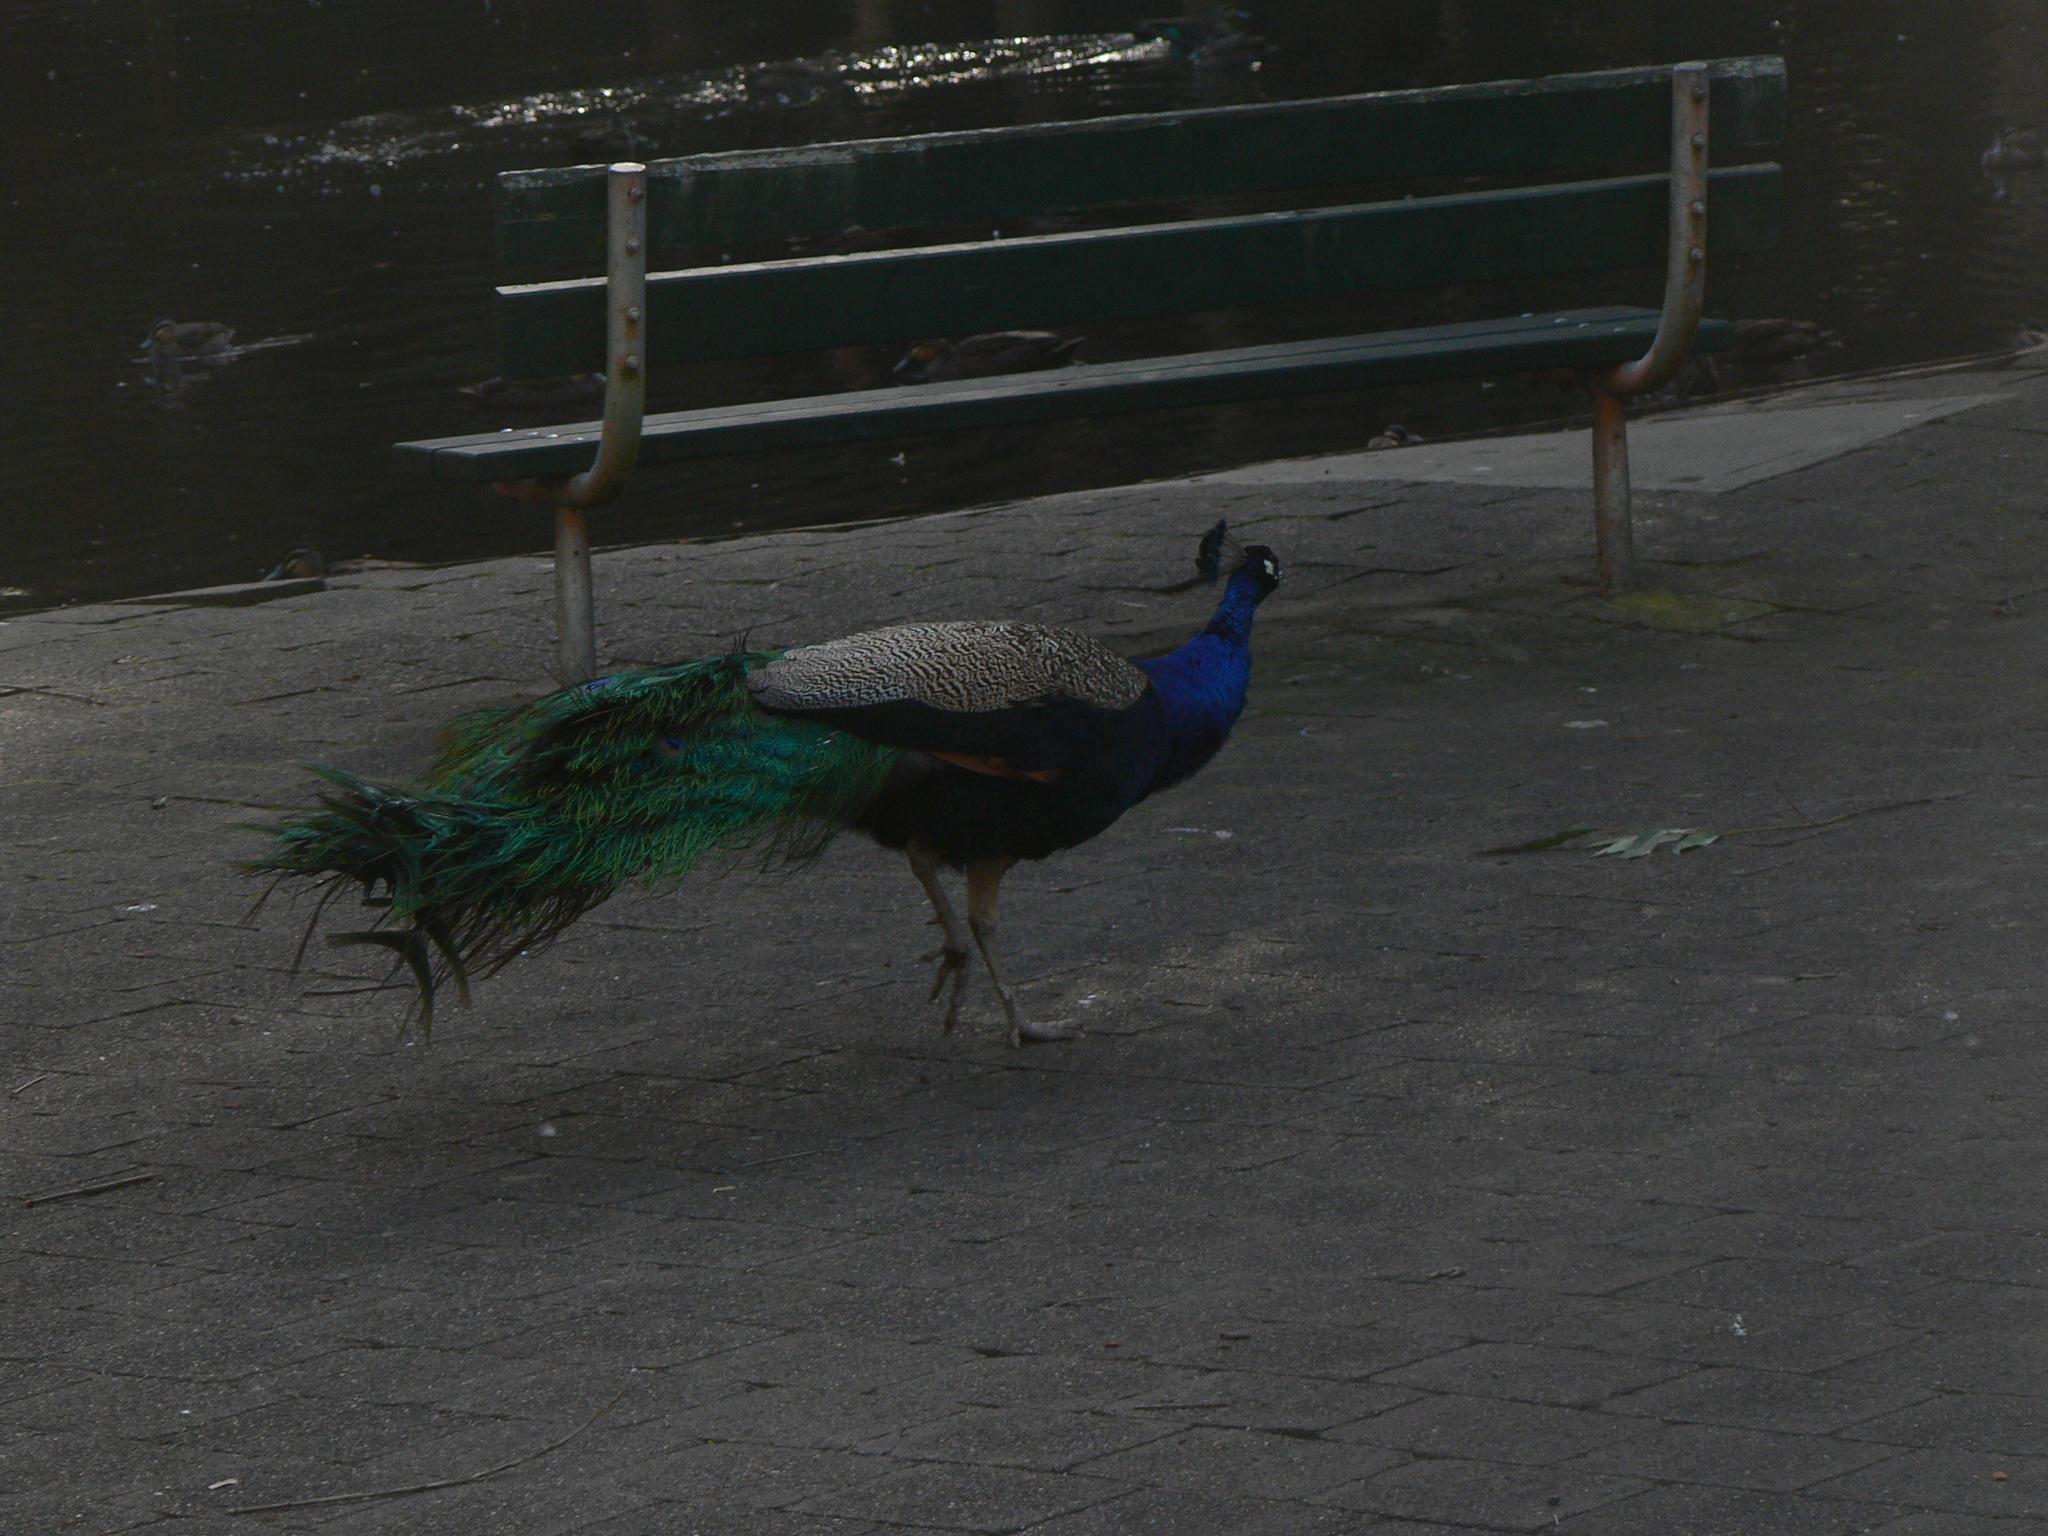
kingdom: Animalia
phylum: Chordata
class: Aves
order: Galliformes
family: Phasianidae
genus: Pavo
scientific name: Pavo cristatus
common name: Indian peafowl
